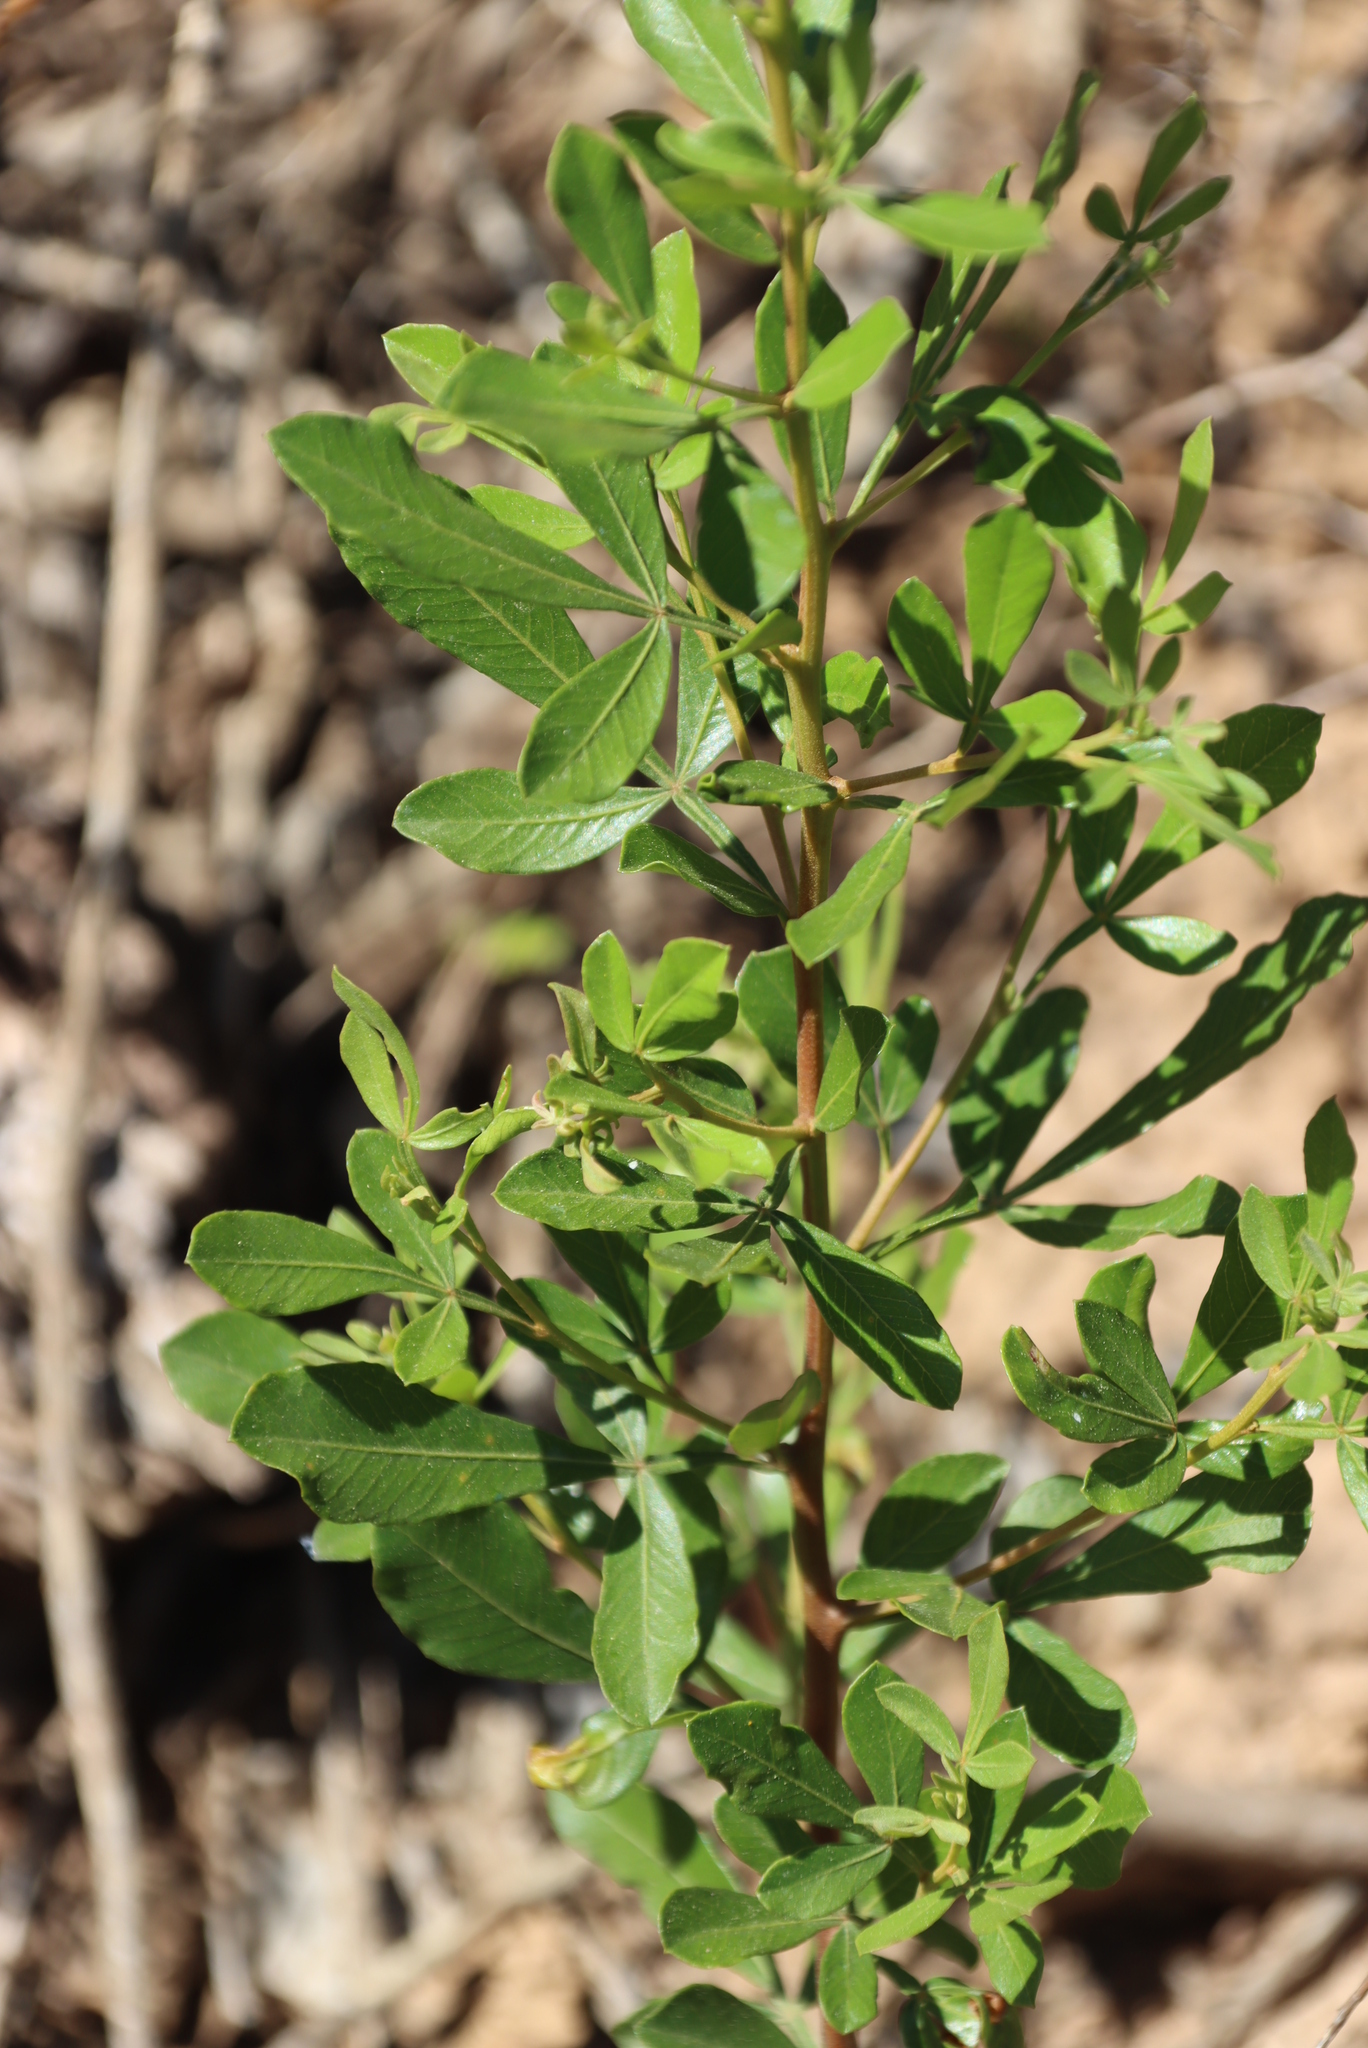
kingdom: Plantae
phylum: Tracheophyta
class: Magnoliopsida
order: Sapindales
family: Anacardiaceae
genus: Searsia
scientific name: Searsia pallens
